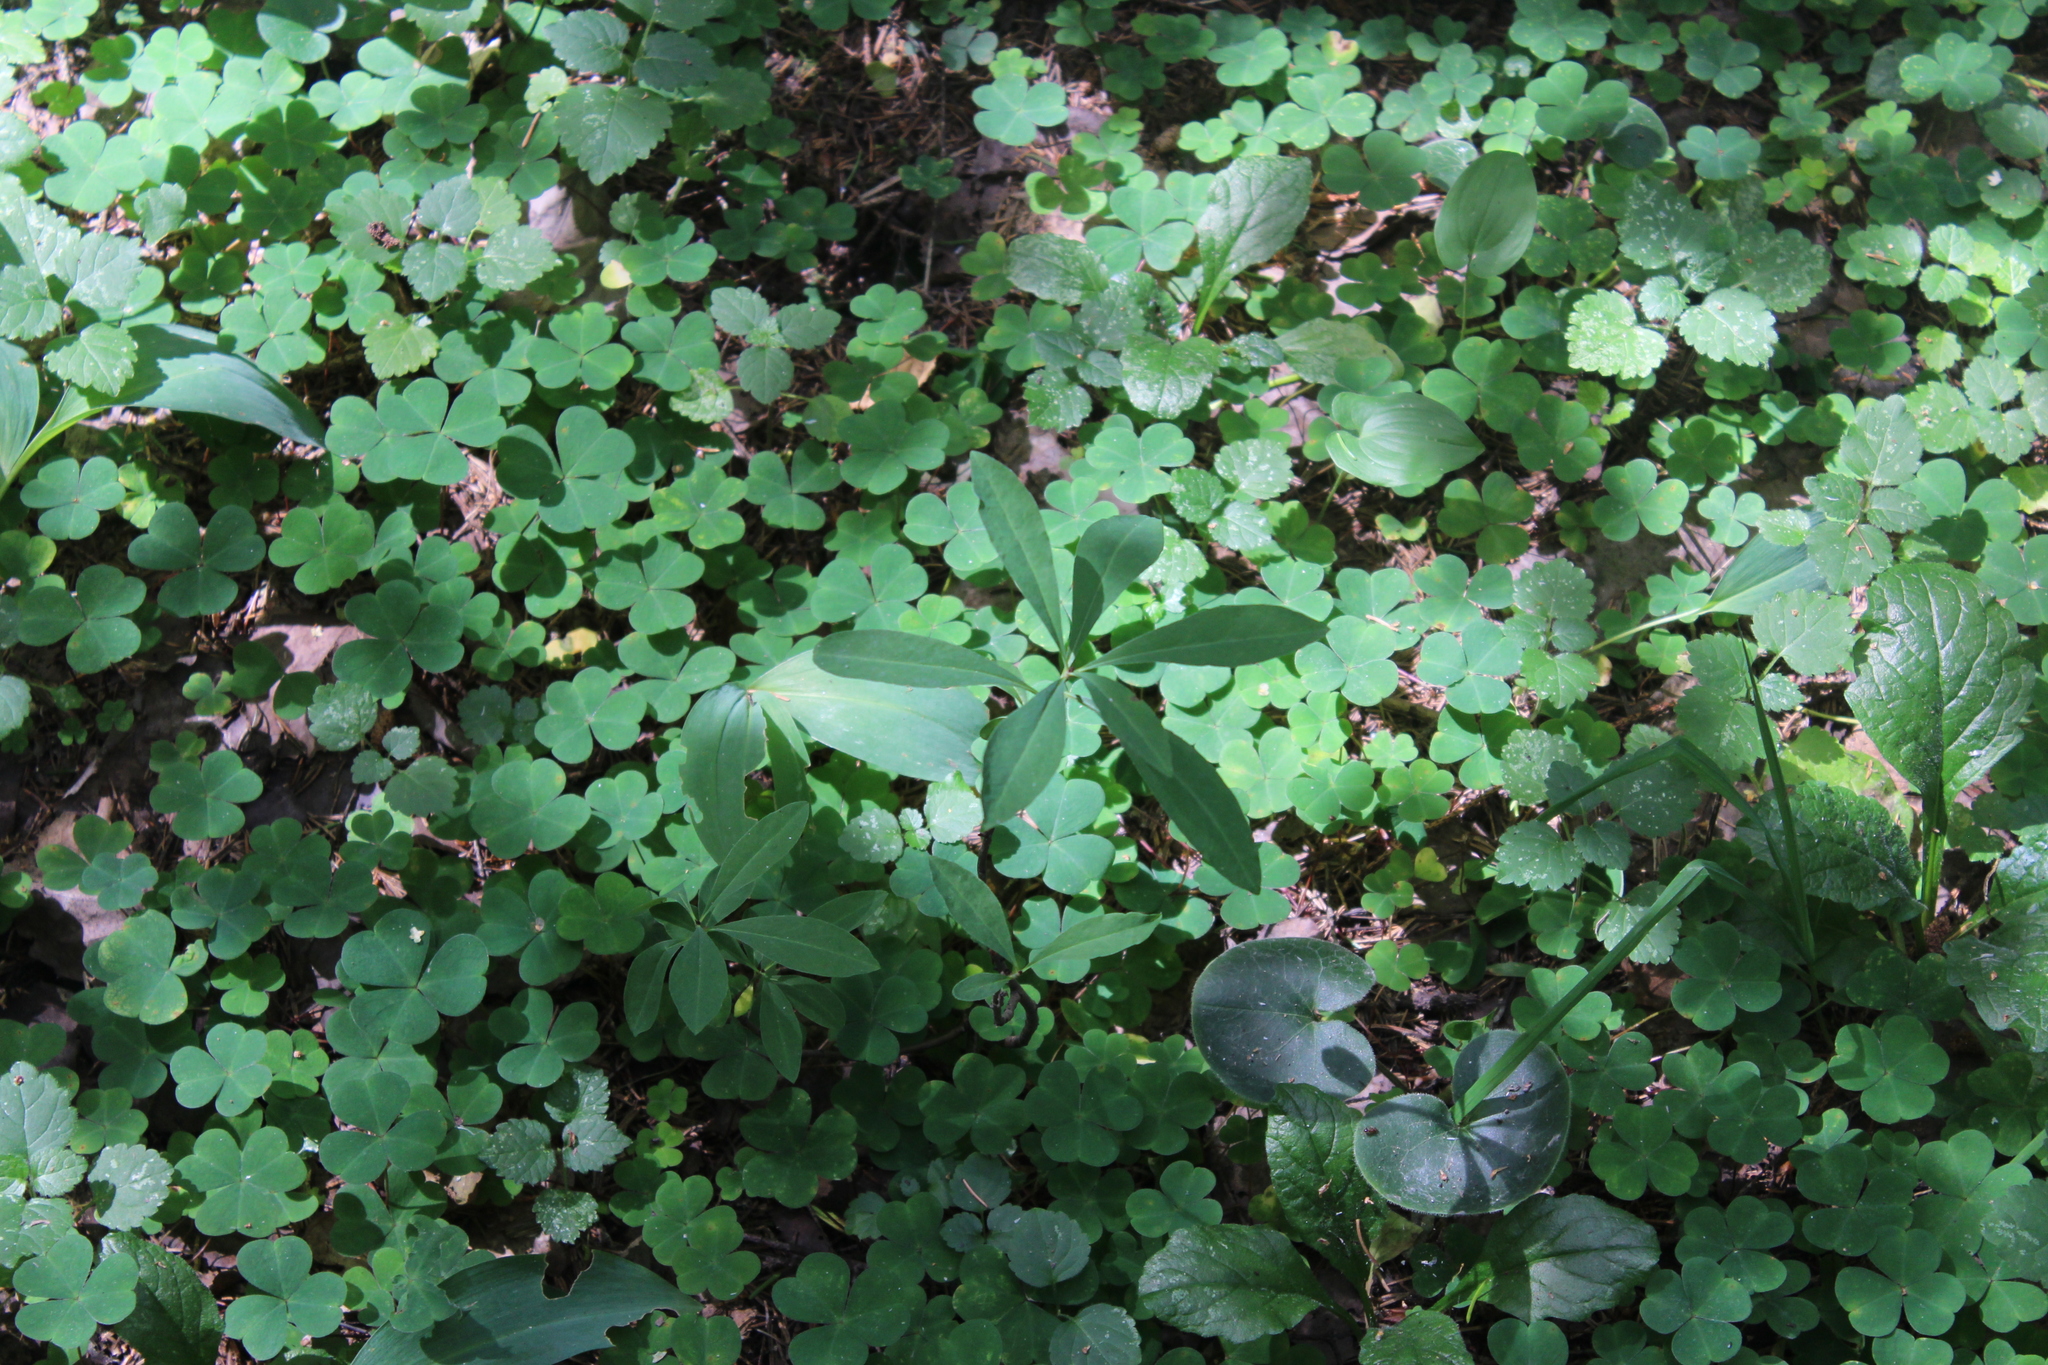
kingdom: Plantae
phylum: Tracheophyta
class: Magnoliopsida
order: Malvales
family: Thymelaeaceae
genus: Daphne
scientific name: Daphne mezereum
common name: Mezereon
